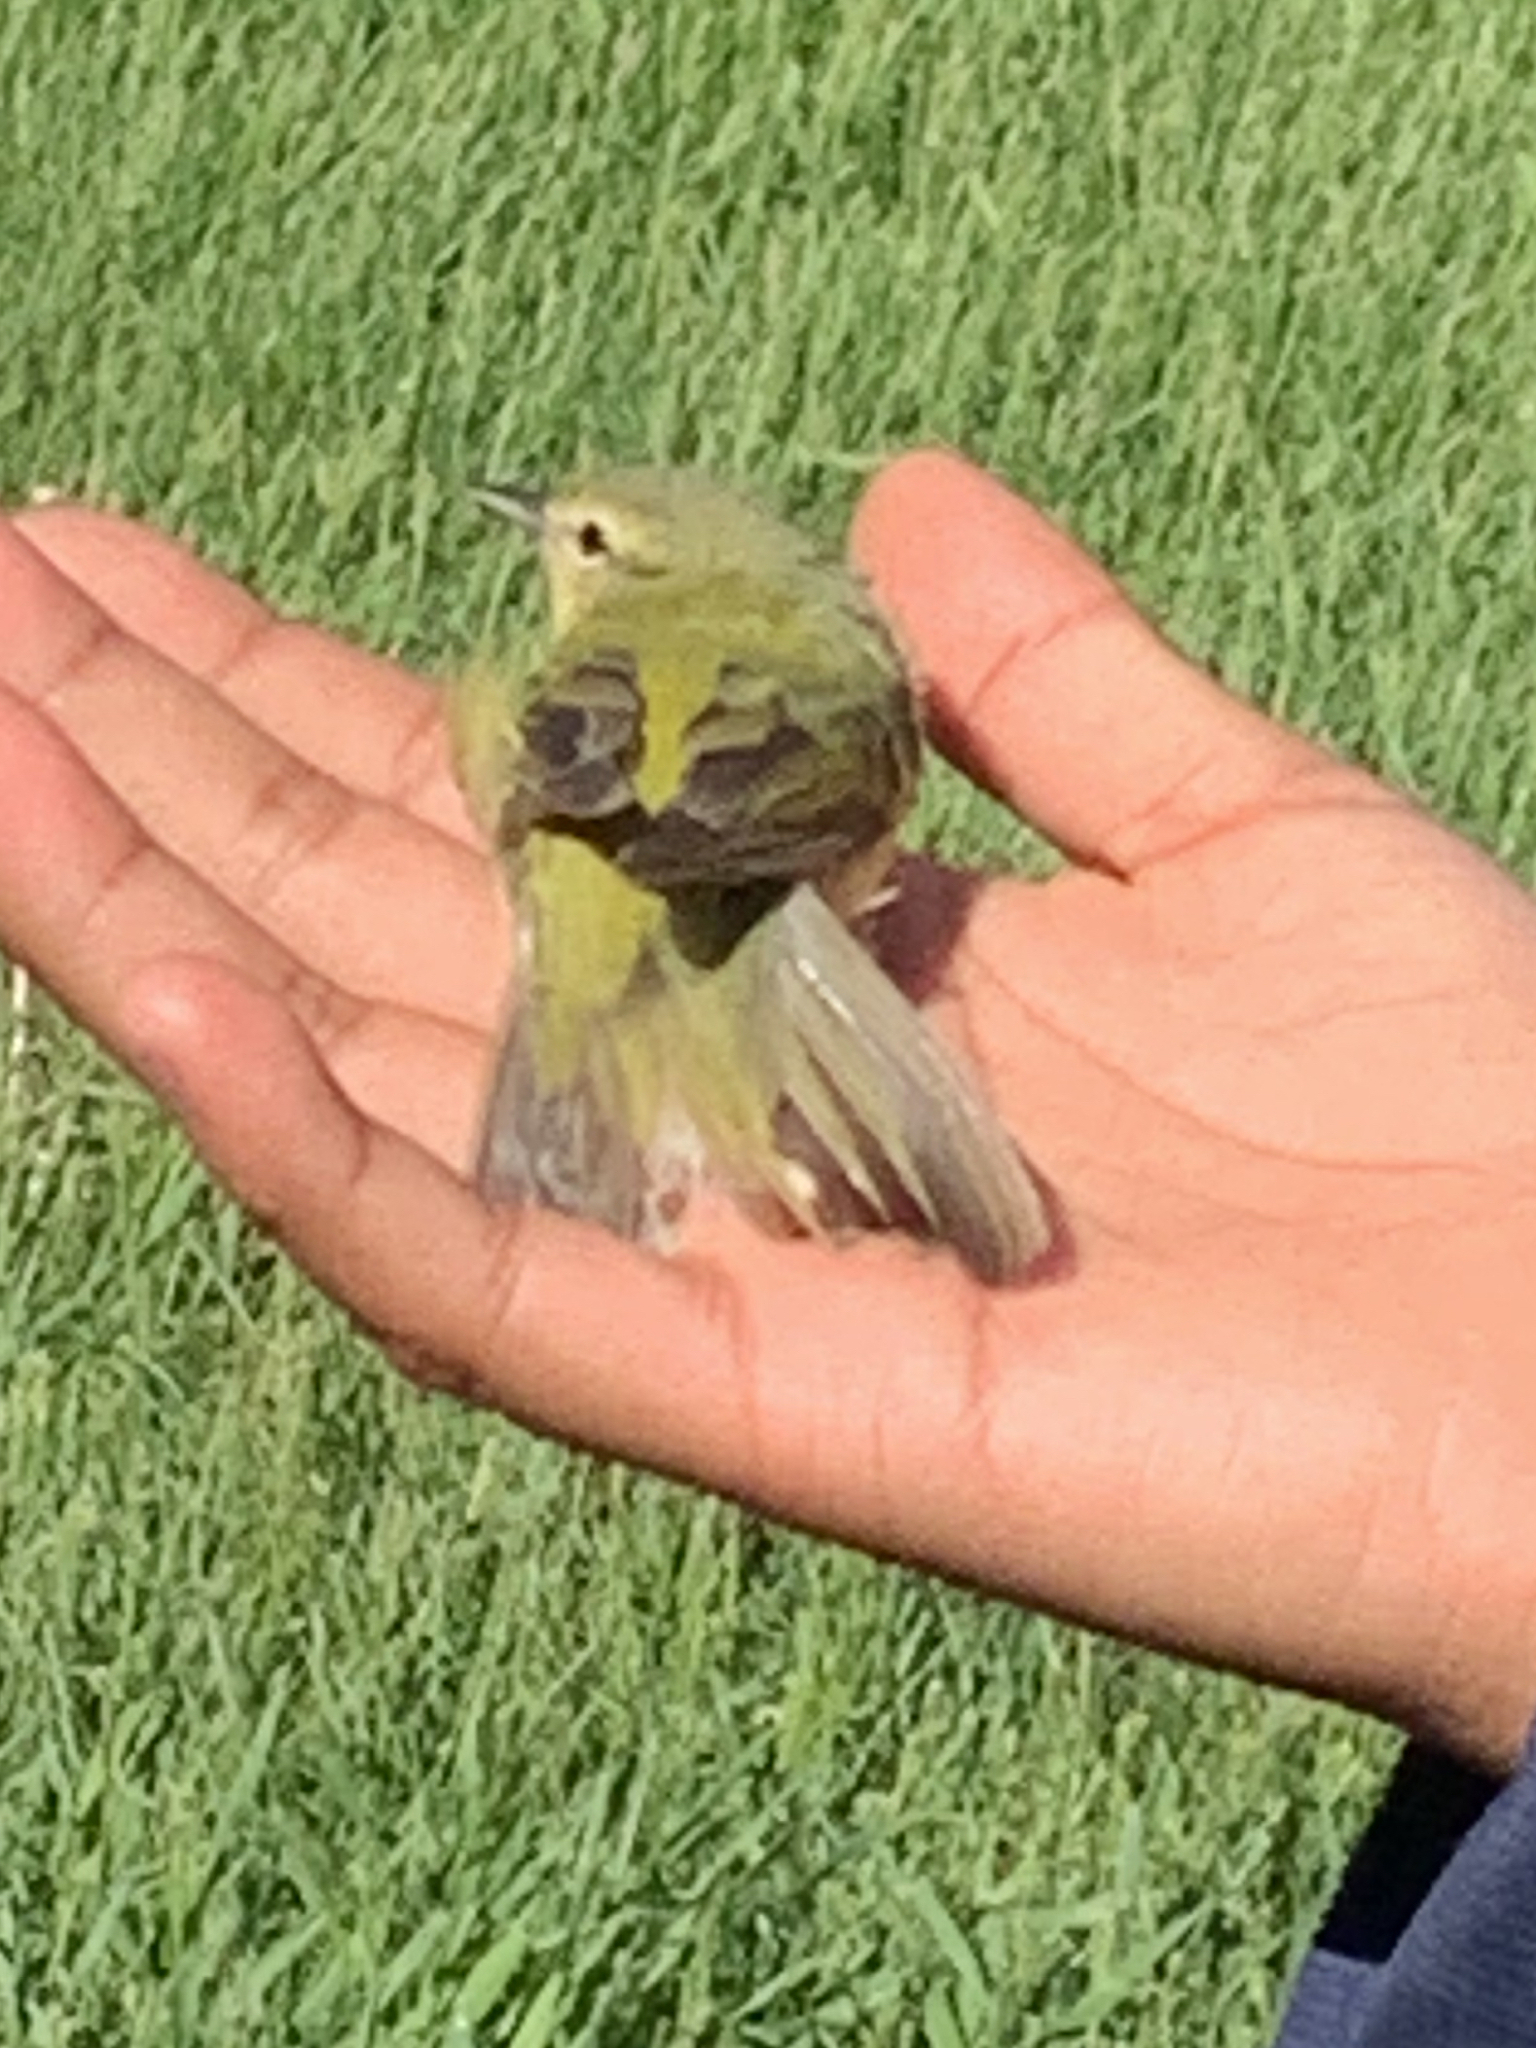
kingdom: Animalia
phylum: Chordata
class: Aves
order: Passeriformes
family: Parulidae
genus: Leiothlypis
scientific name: Leiothlypis peregrina
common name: Tennessee warbler
